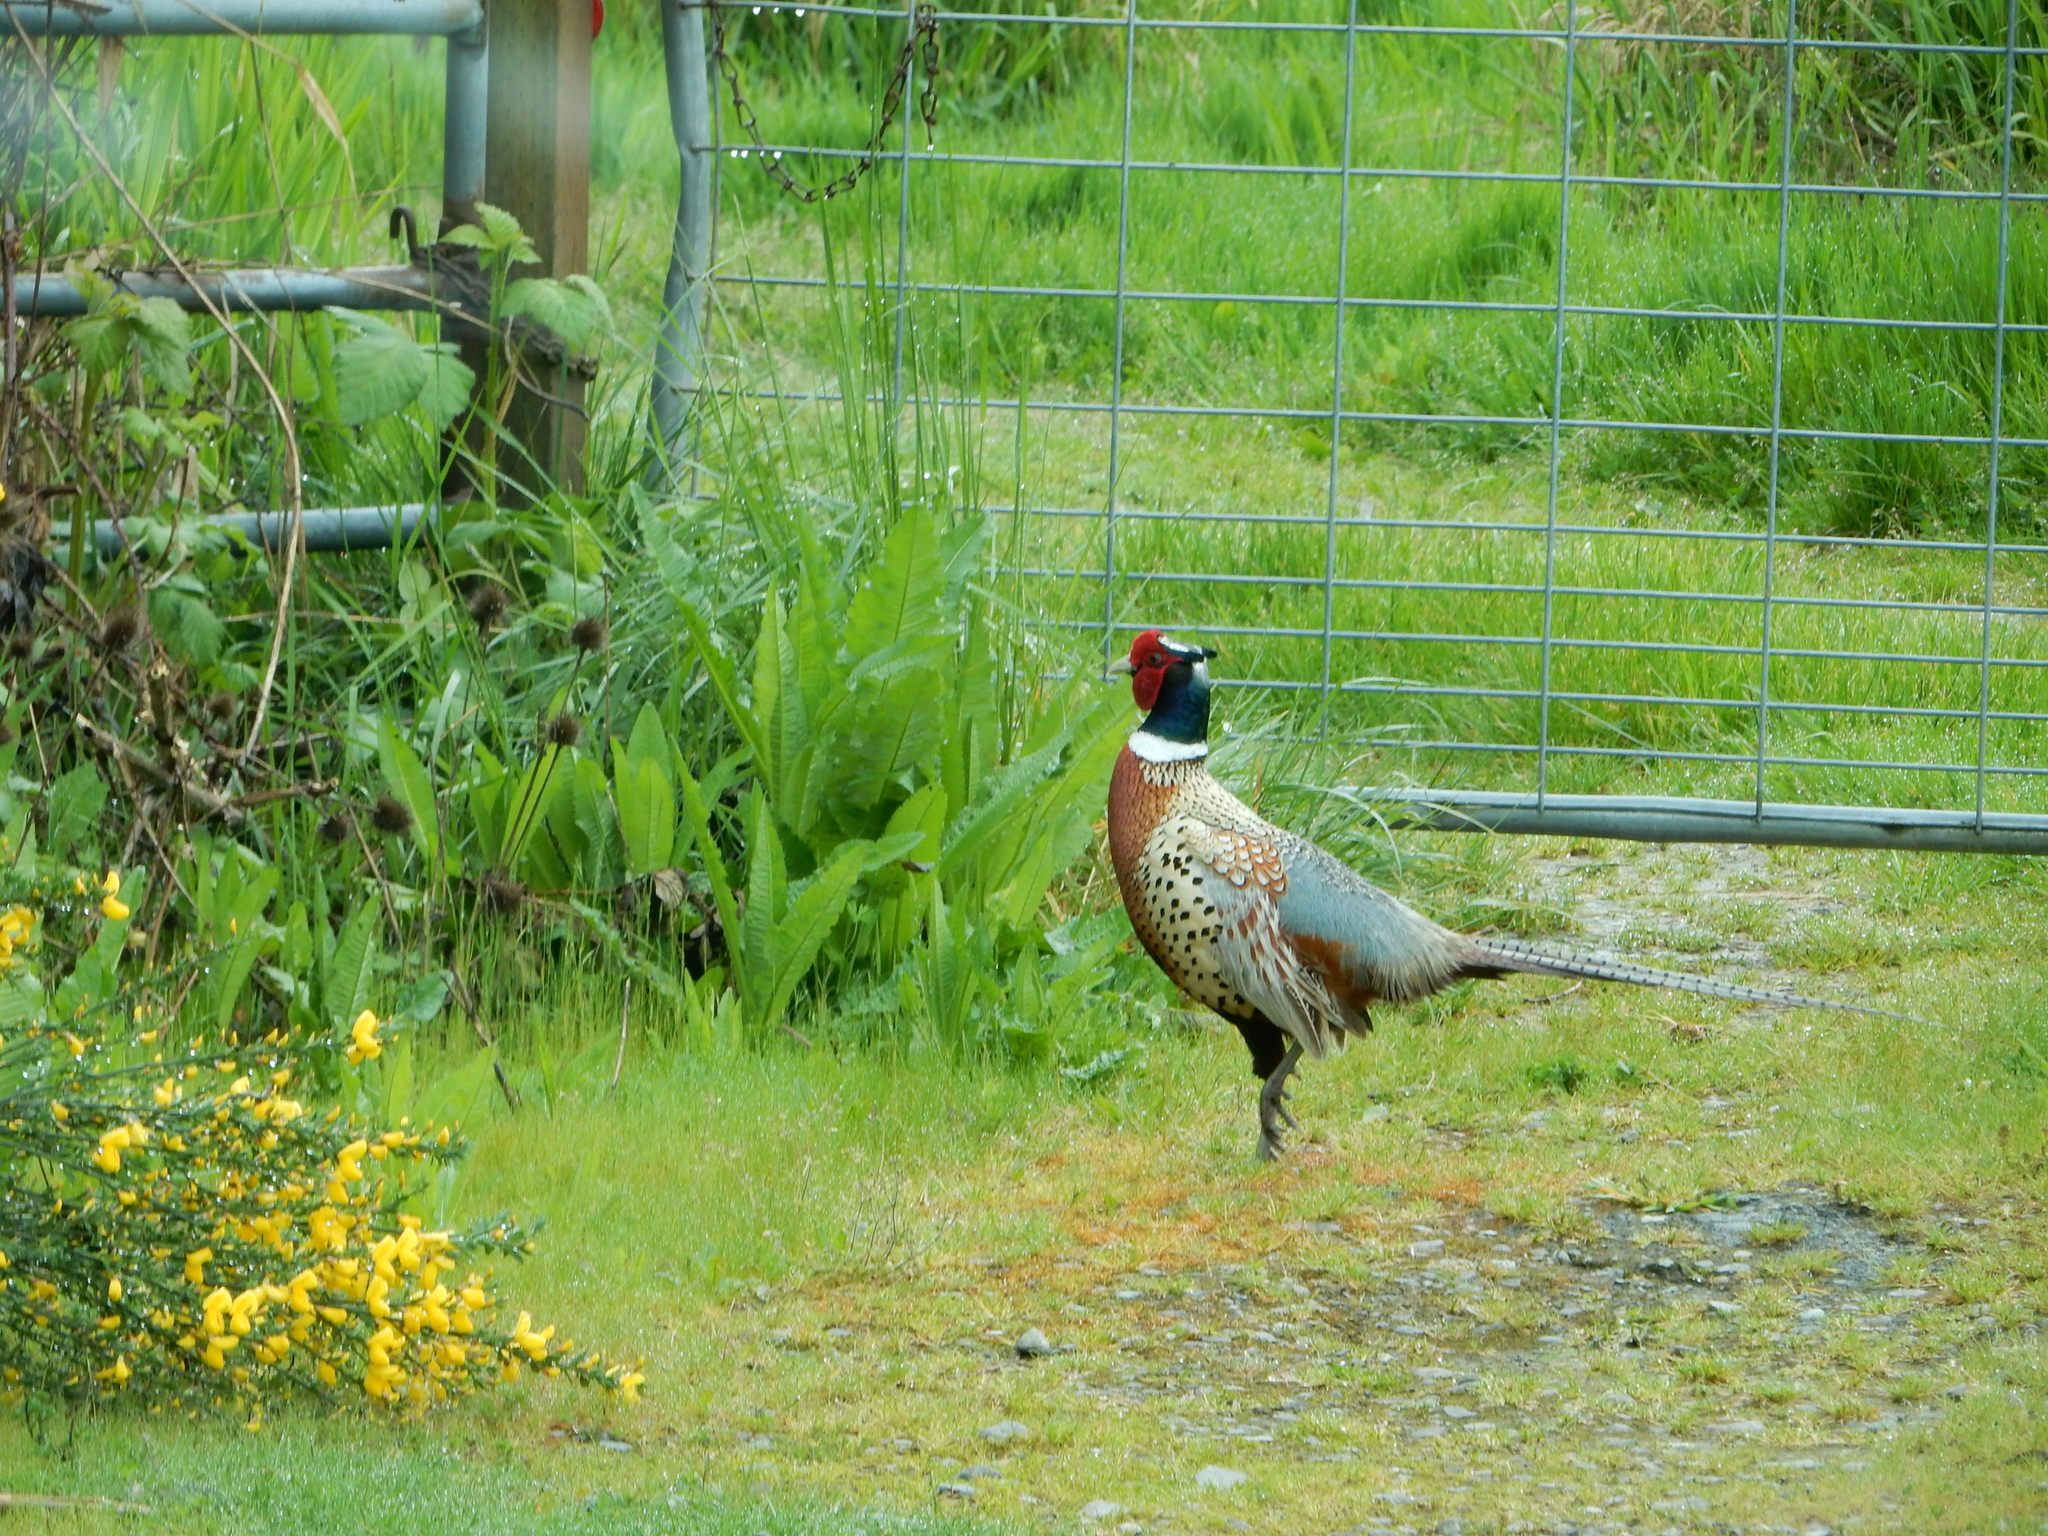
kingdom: Animalia
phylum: Chordata
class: Aves
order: Galliformes
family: Phasianidae
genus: Phasianus
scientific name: Phasianus colchicus
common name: Common pheasant
